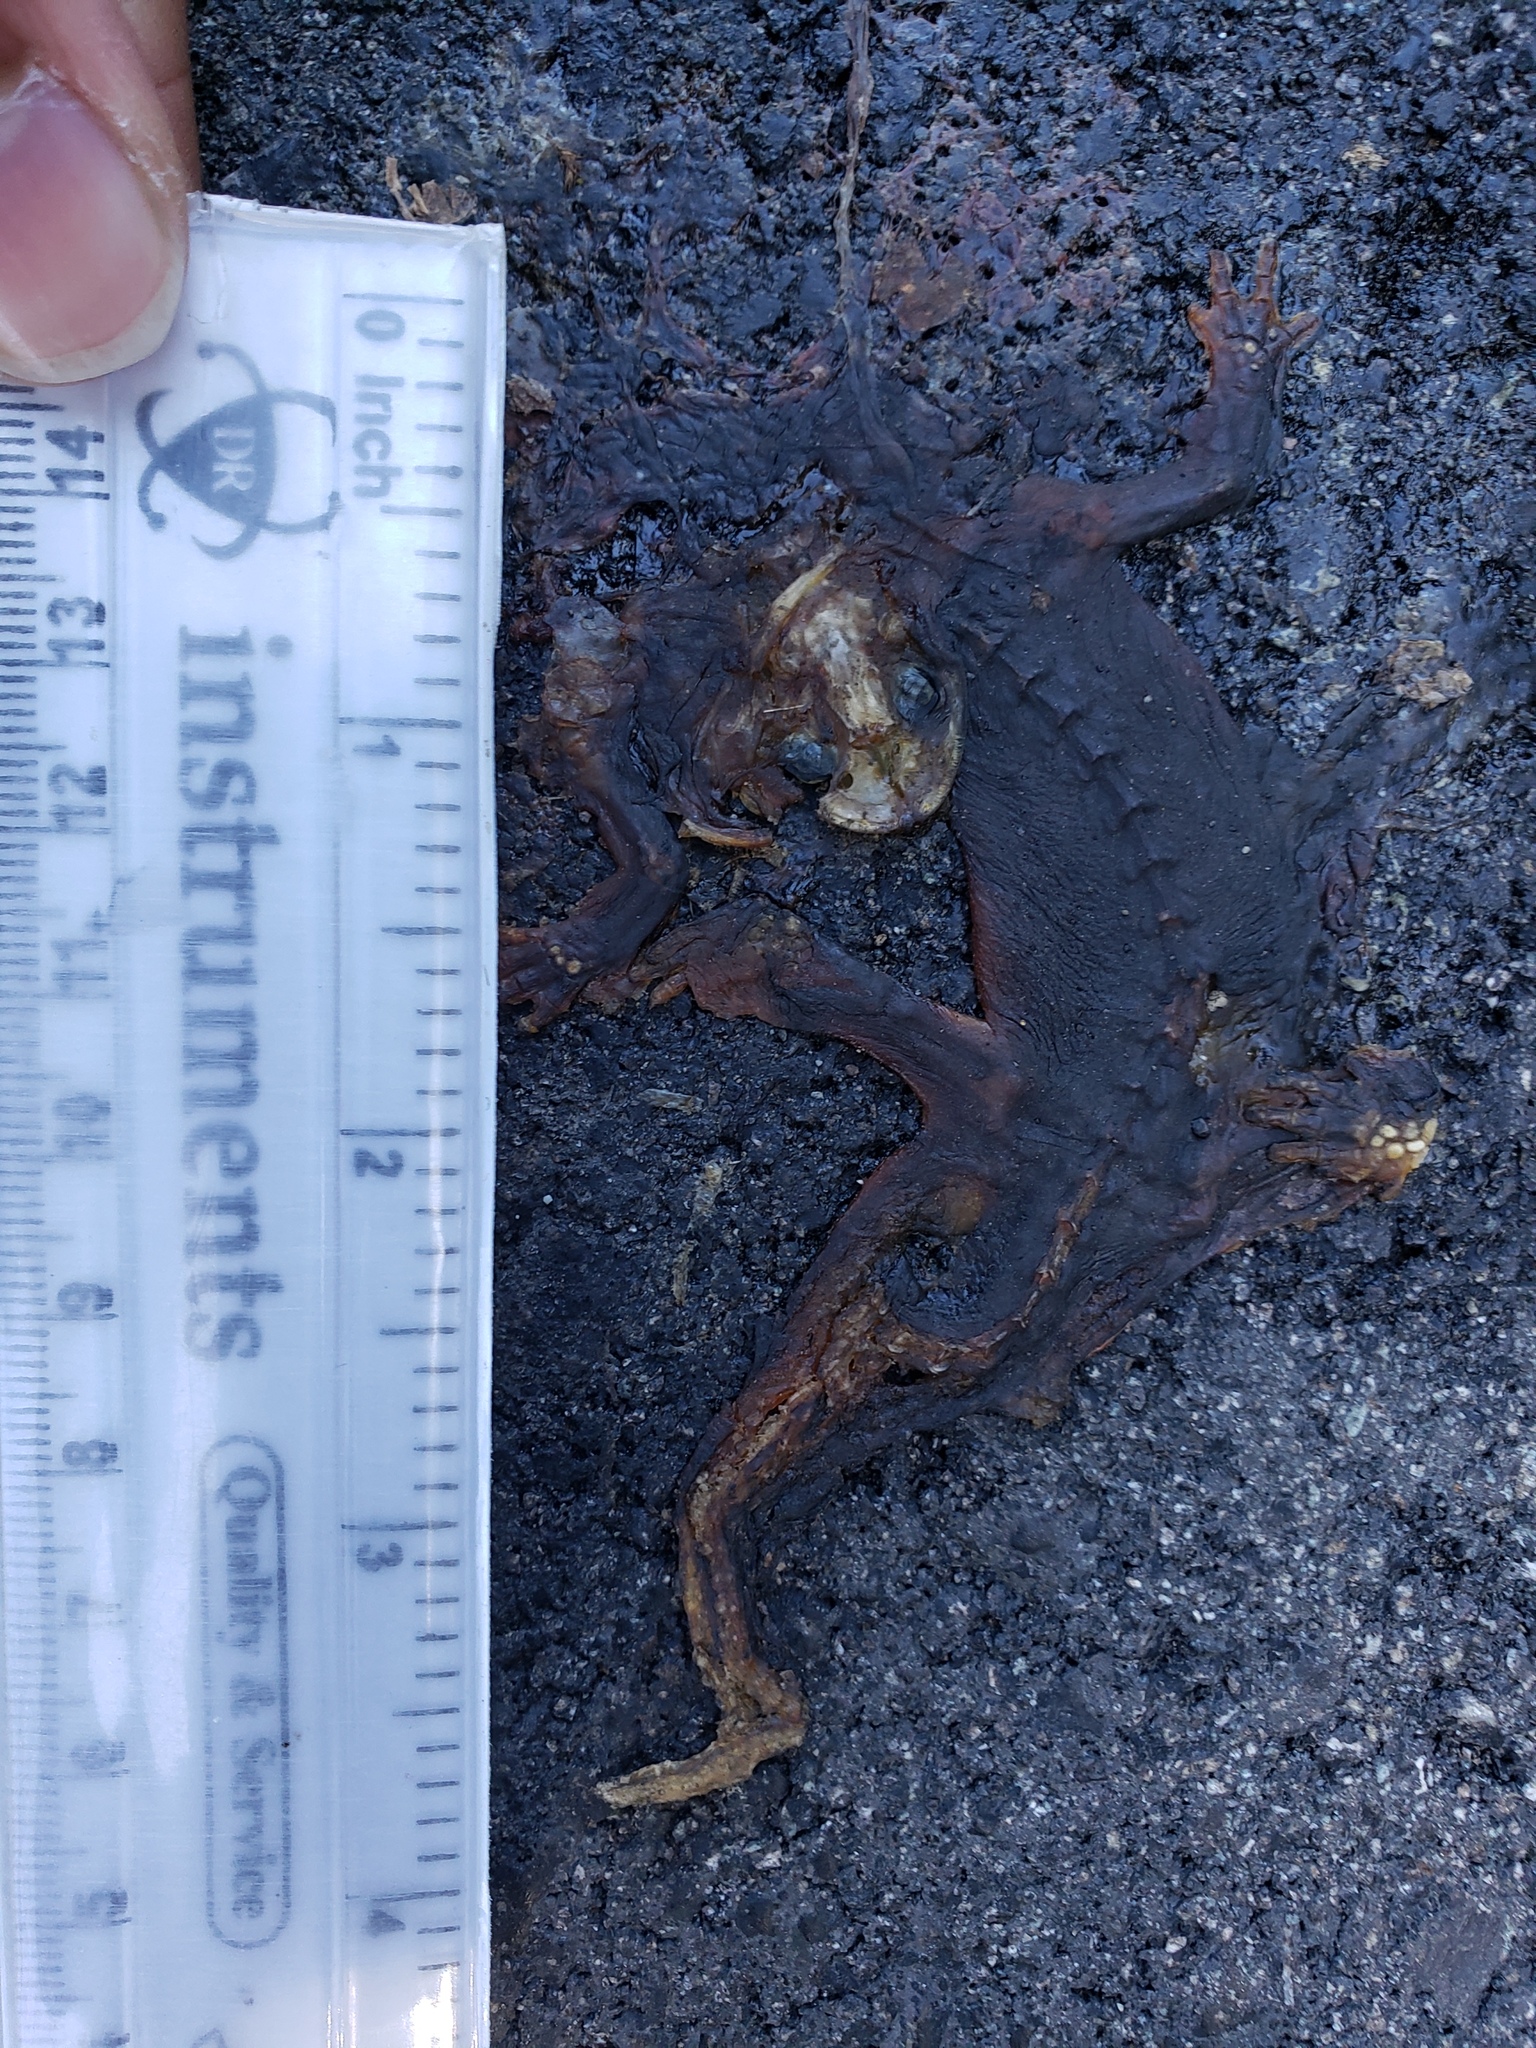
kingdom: Animalia
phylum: Chordata
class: Amphibia
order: Caudata
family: Salamandridae
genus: Taricha
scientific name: Taricha
